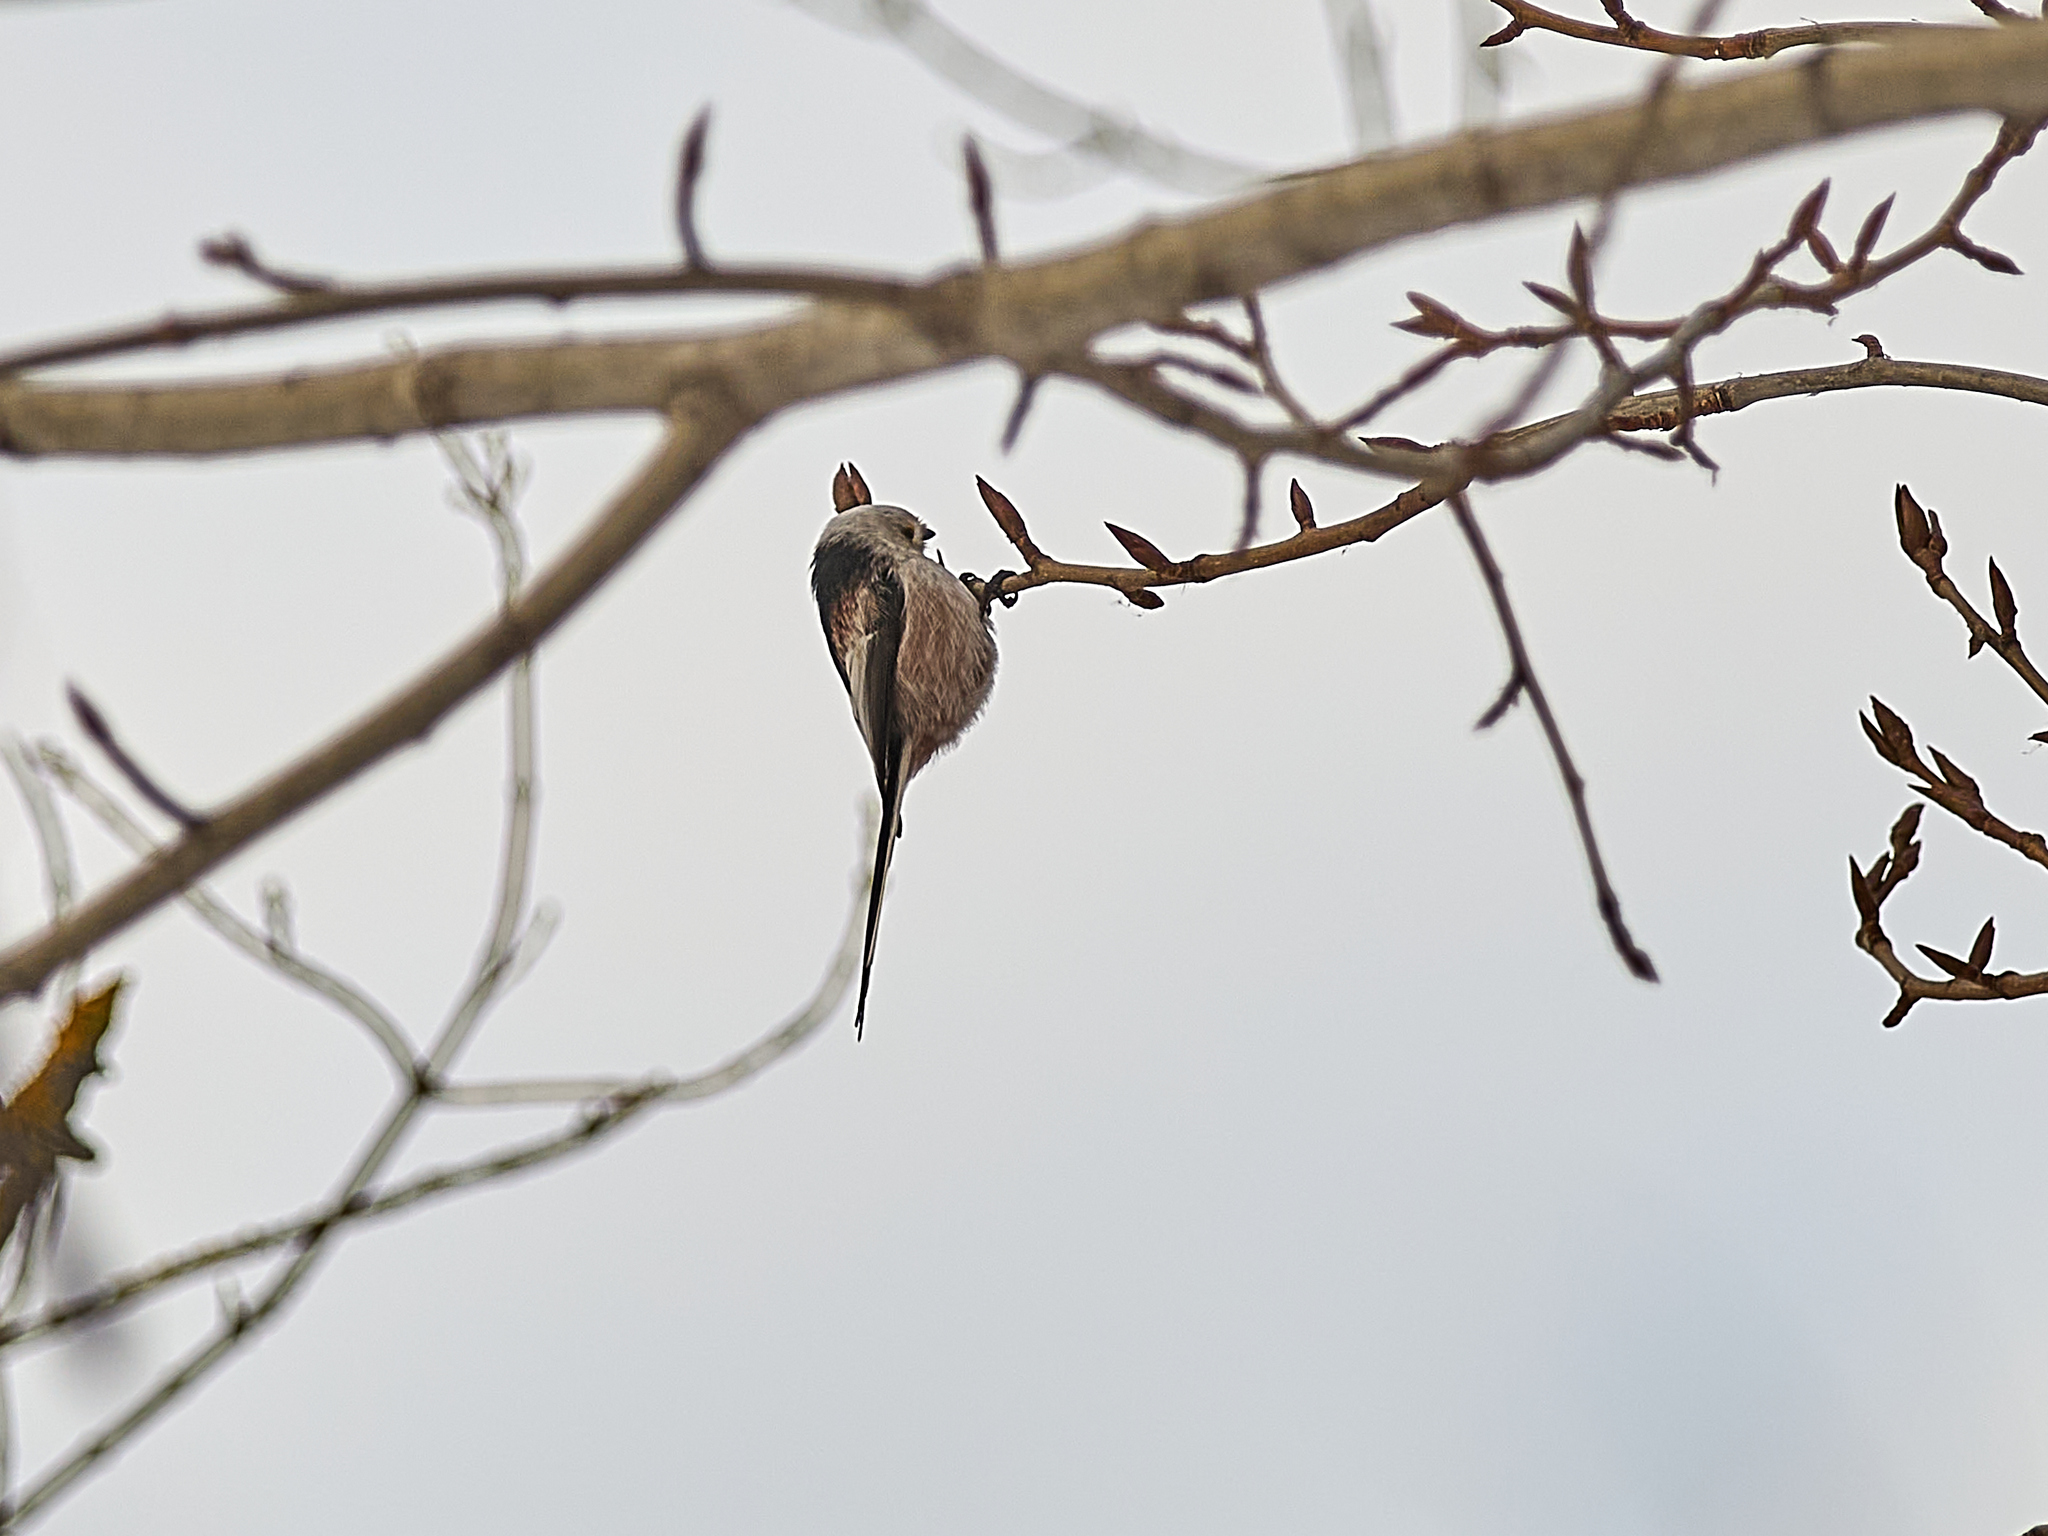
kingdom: Animalia
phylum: Chordata
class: Aves
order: Passeriformes
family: Aegithalidae
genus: Aegithalos
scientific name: Aegithalos caudatus
